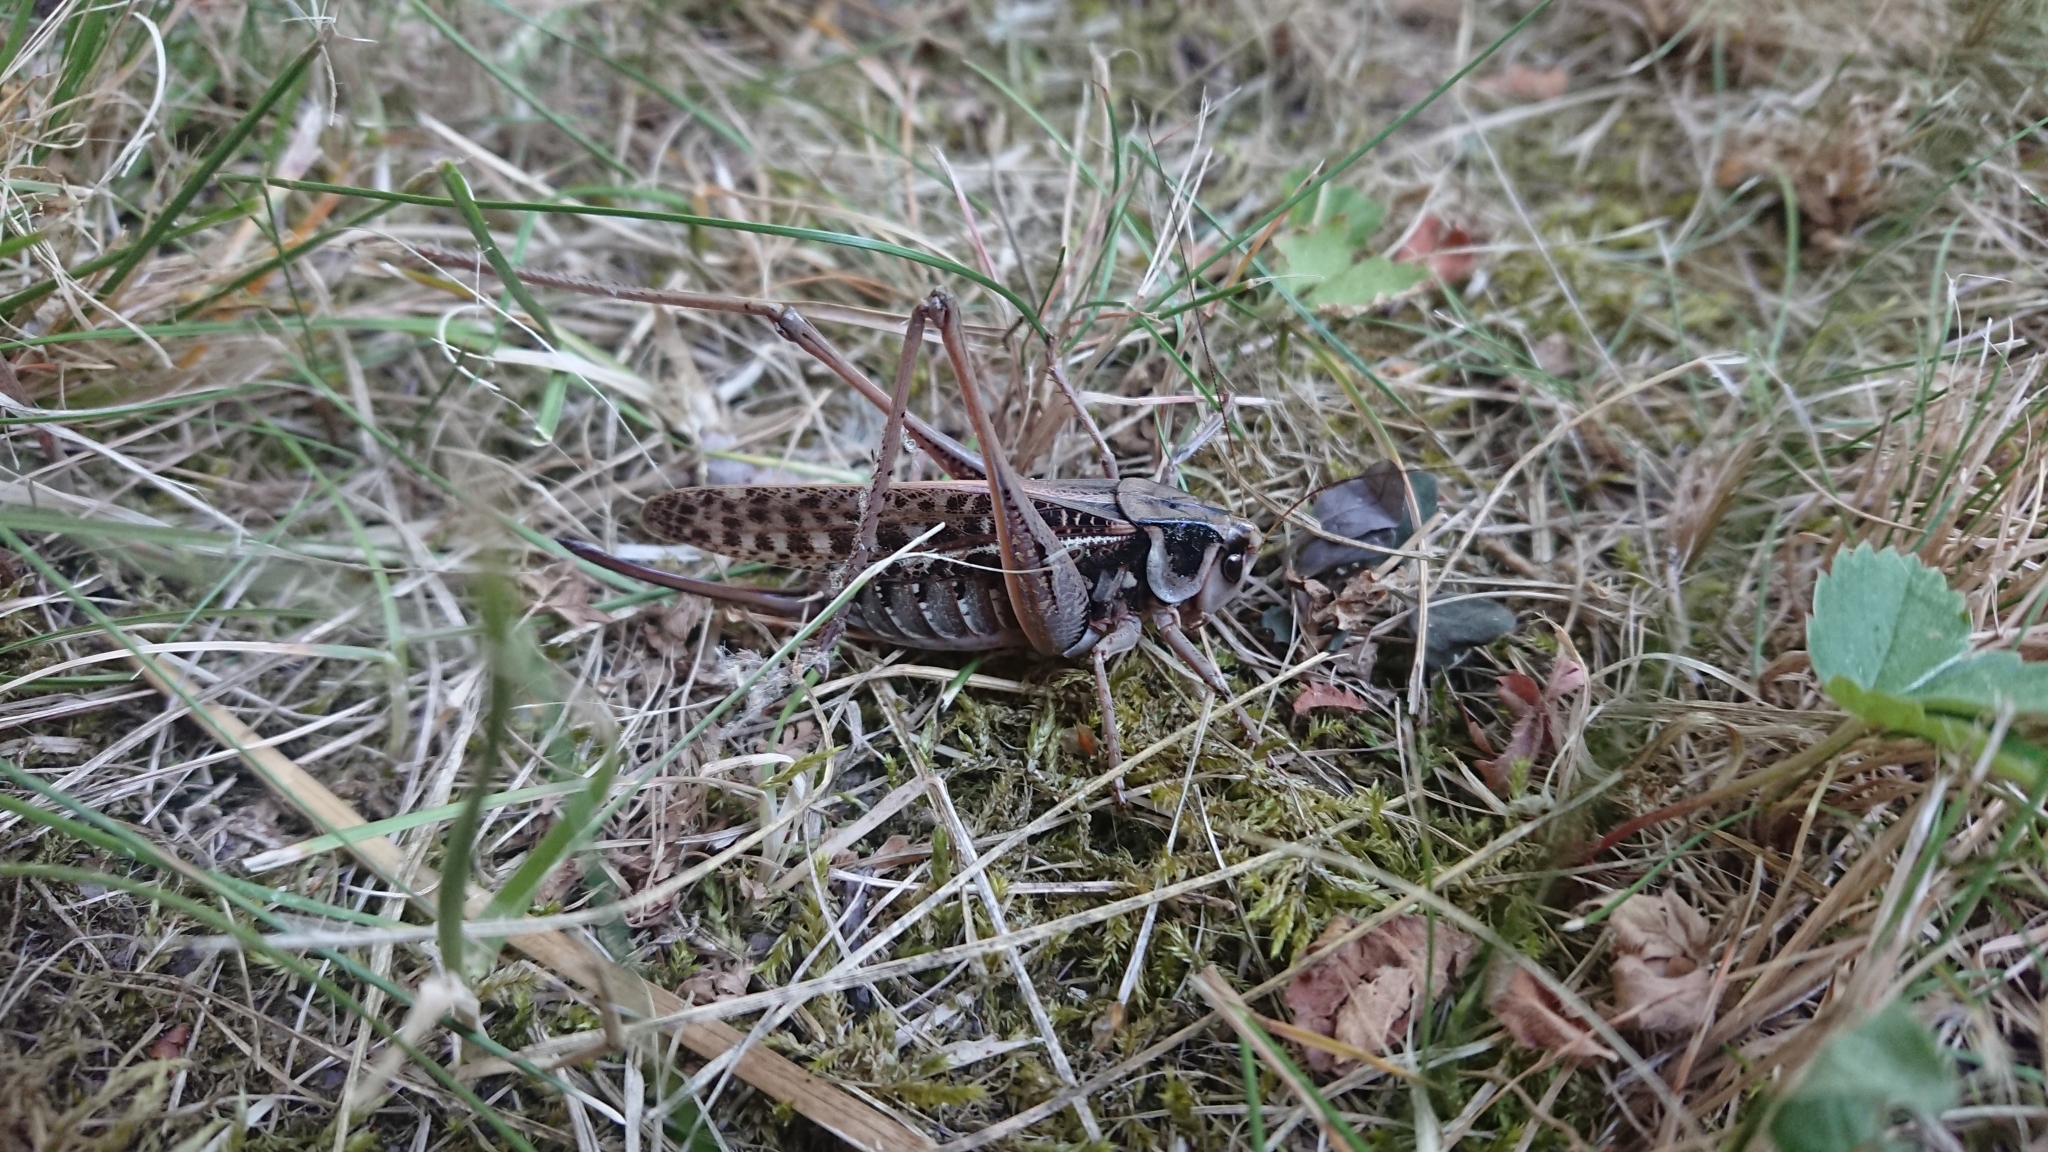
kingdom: Animalia
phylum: Arthropoda
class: Insecta
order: Orthoptera
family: Tettigoniidae
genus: Decticus
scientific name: Decticus verrucivorus
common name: Wart-biter
